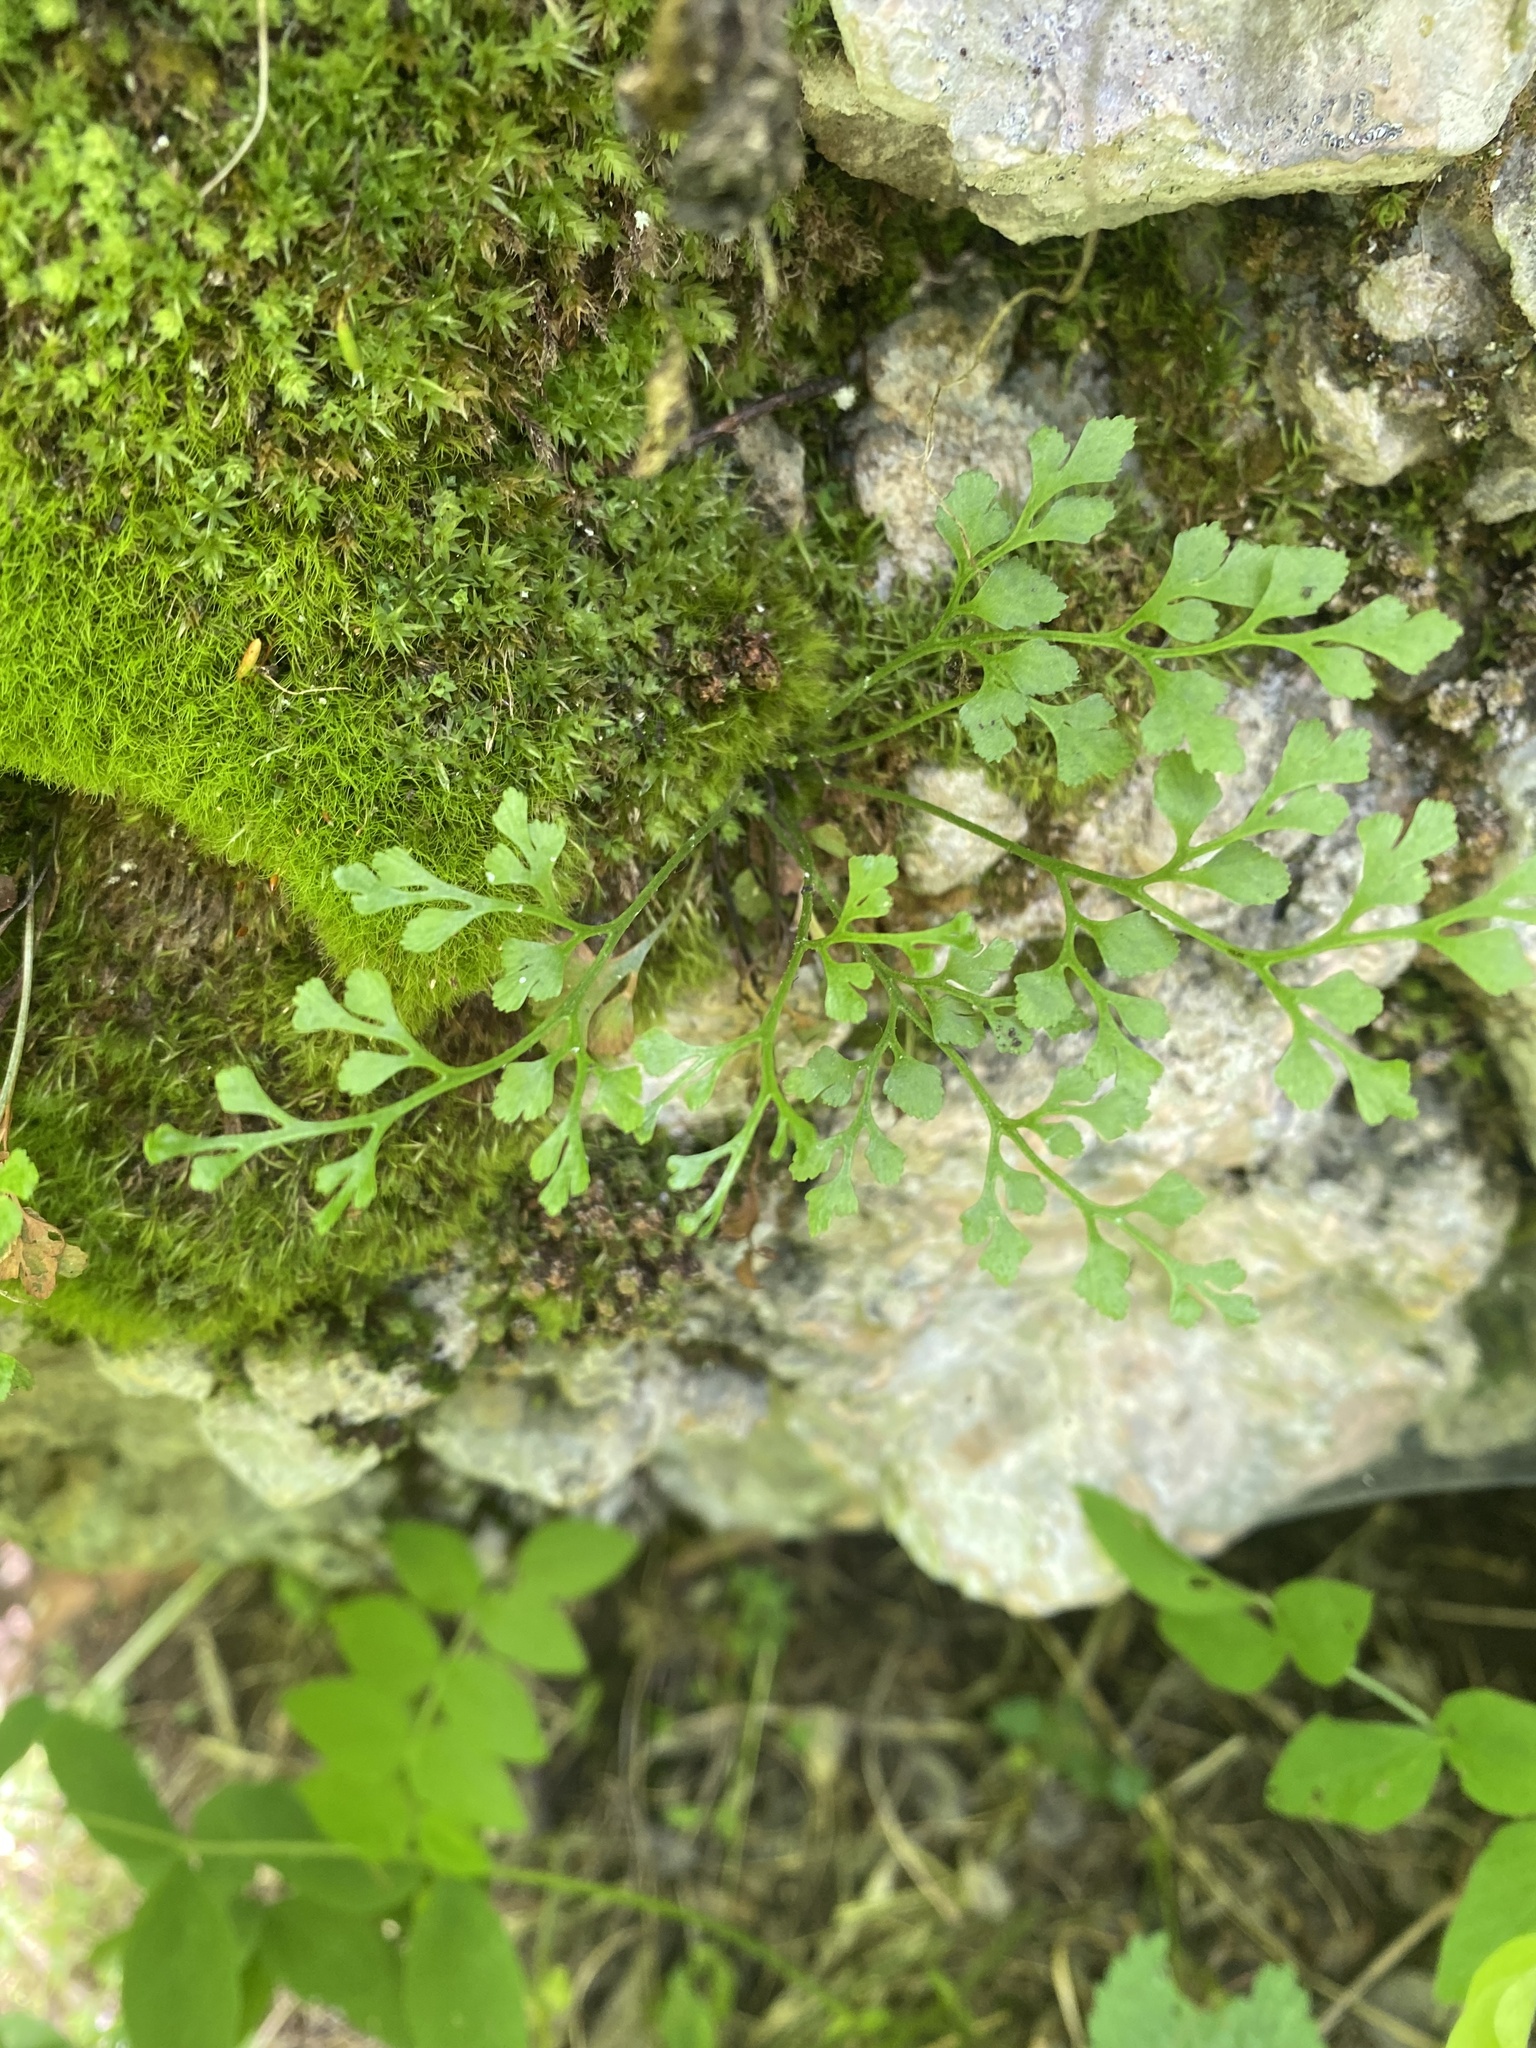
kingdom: Plantae
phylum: Tracheophyta
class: Polypodiopsida
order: Polypodiales
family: Aspleniaceae
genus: Asplenium
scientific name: Asplenium ruta-muraria
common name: Wall-rue
